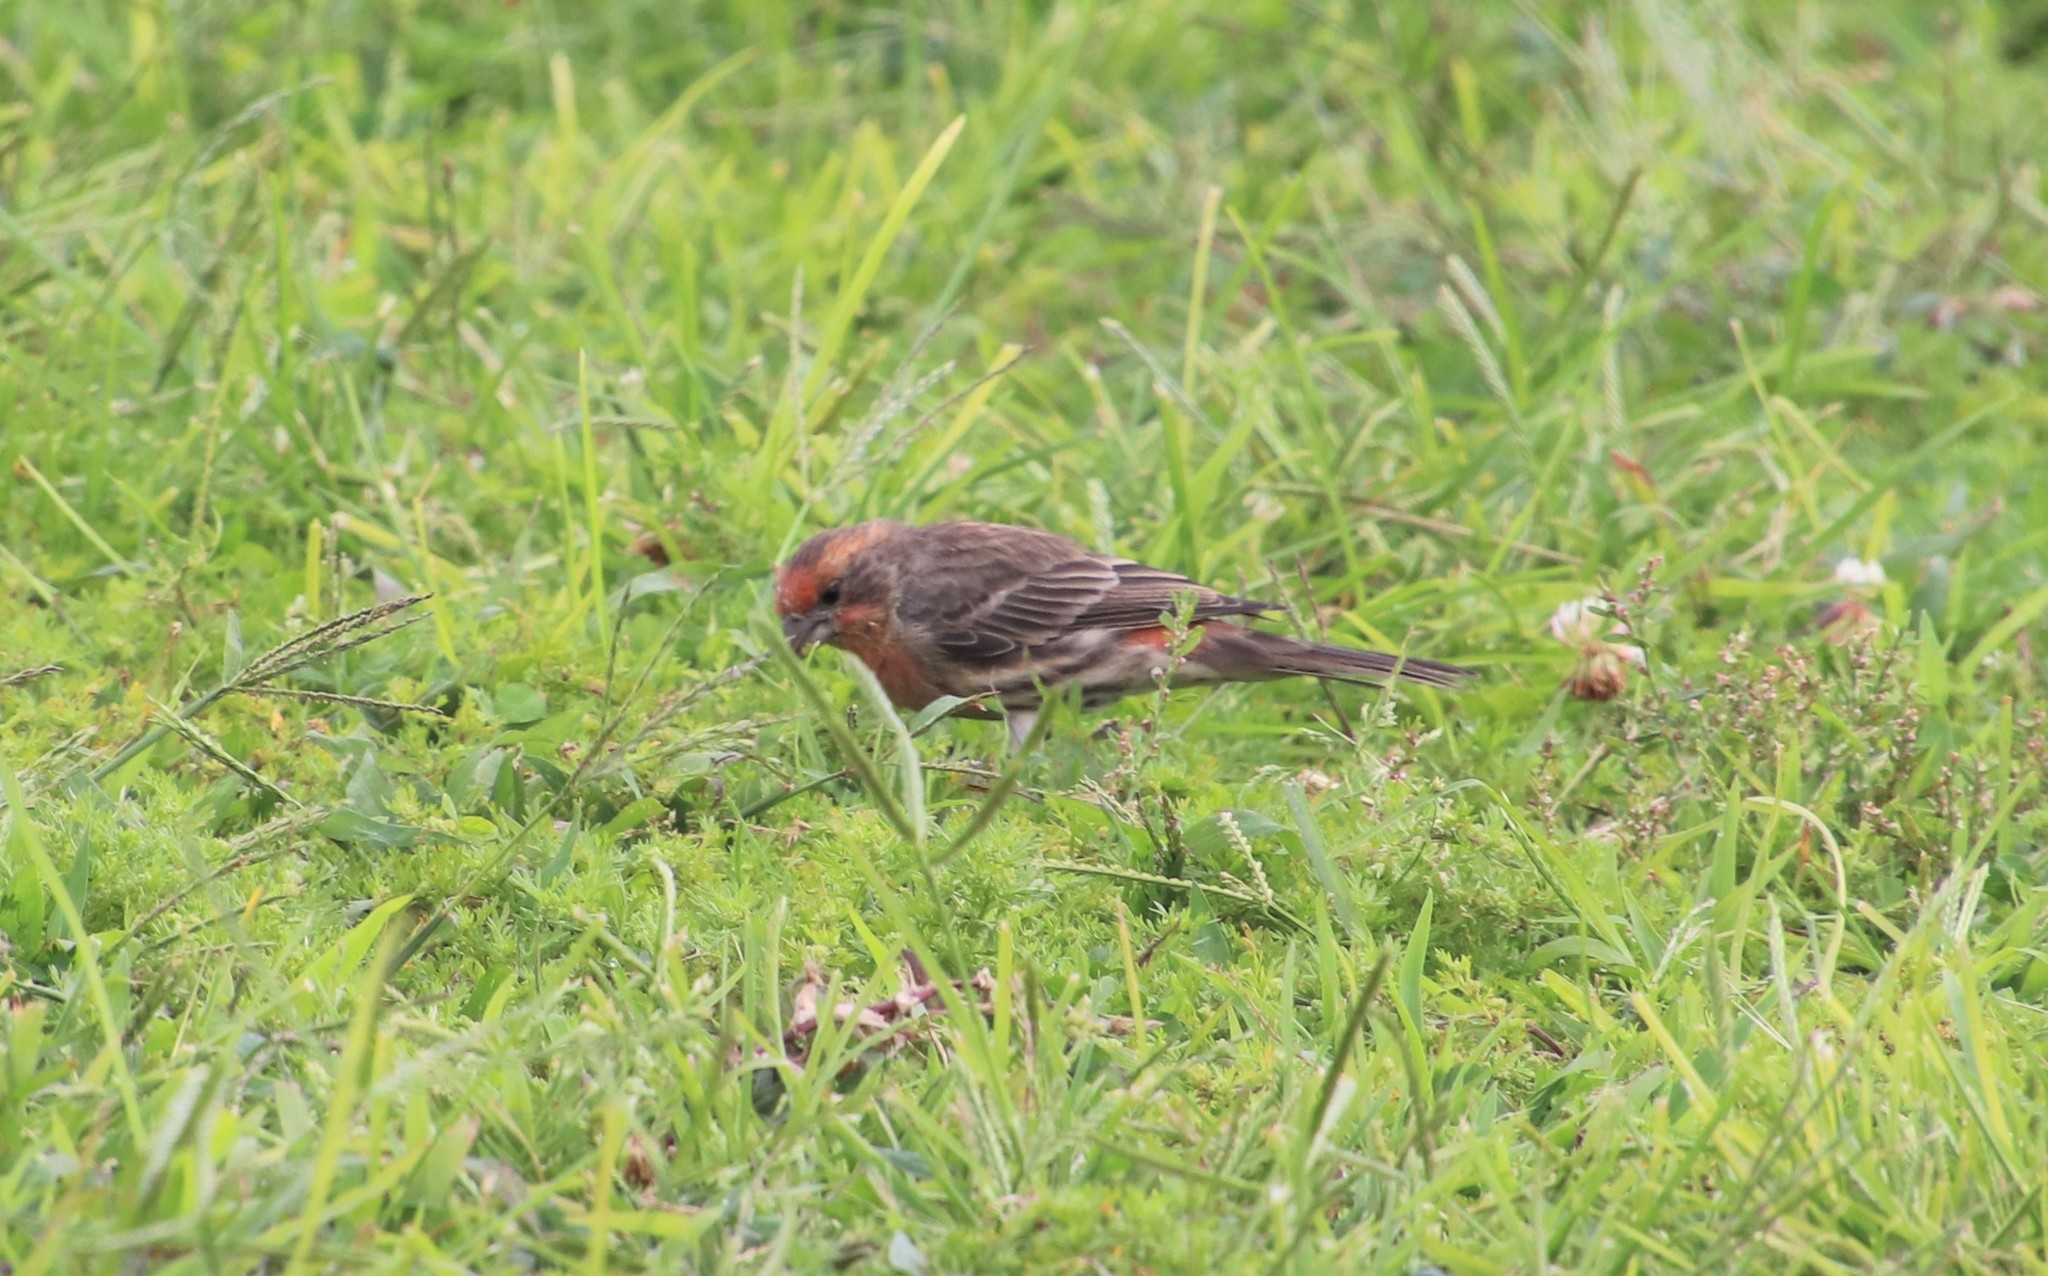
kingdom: Animalia
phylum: Chordata
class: Aves
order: Passeriformes
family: Fringillidae
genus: Haemorhous
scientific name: Haemorhous mexicanus
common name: House finch
